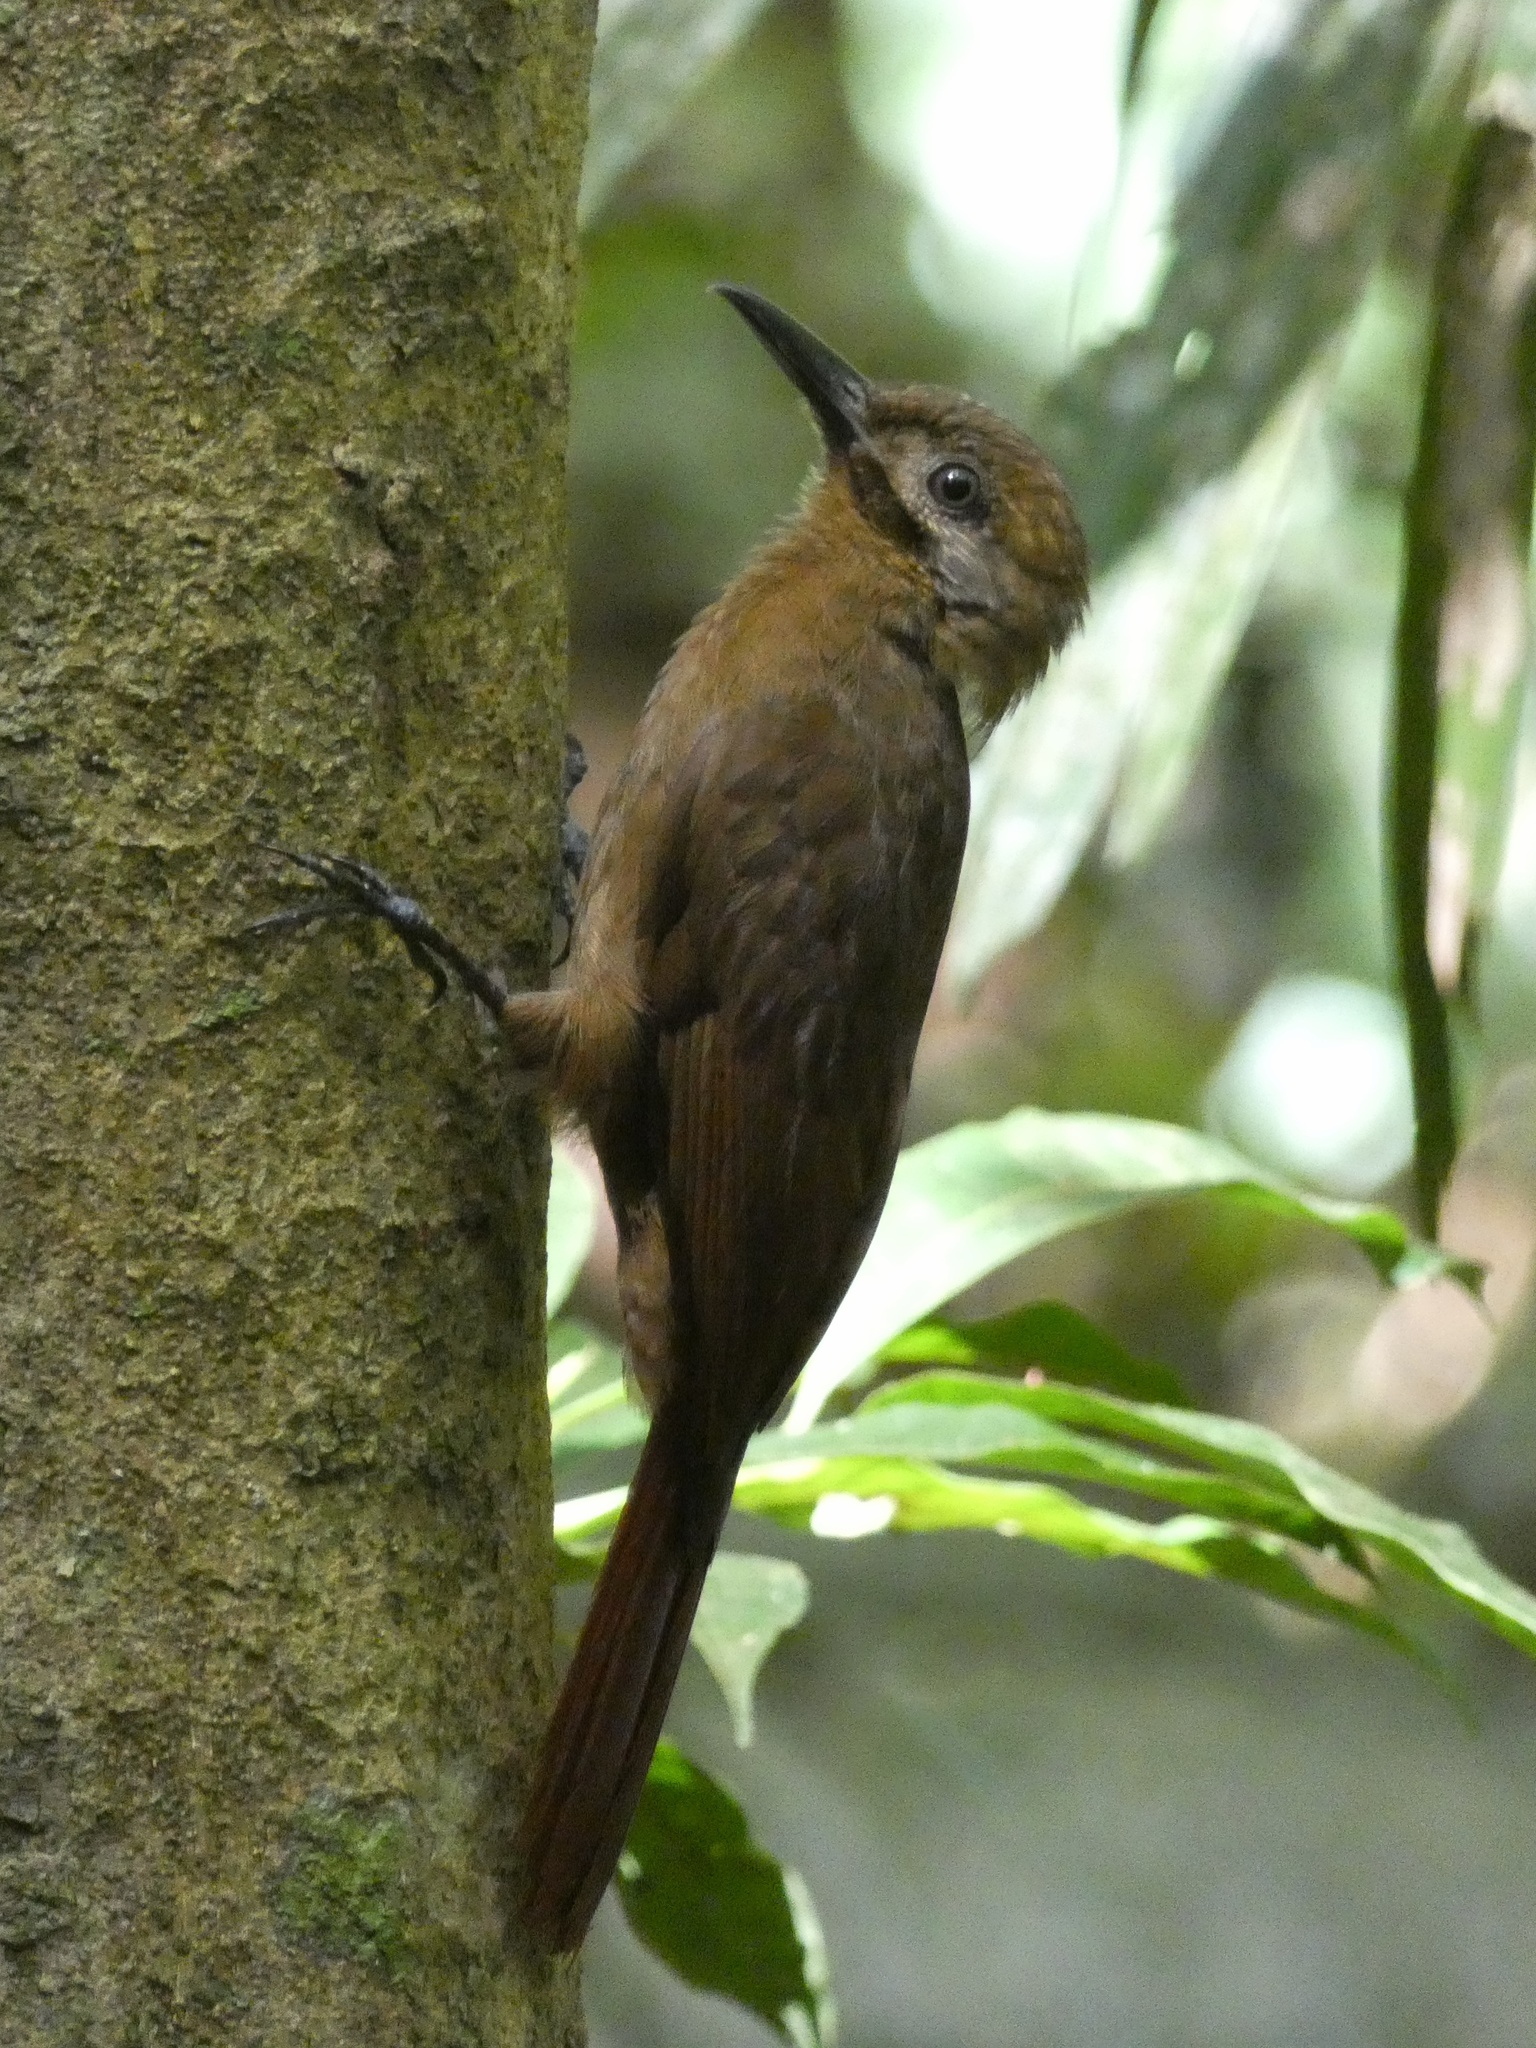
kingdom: Animalia
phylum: Chordata
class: Aves
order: Passeriformes
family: Furnariidae
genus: Dendrocincla
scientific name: Dendrocincla fuliginosa
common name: Plain-brown woodcreeper
